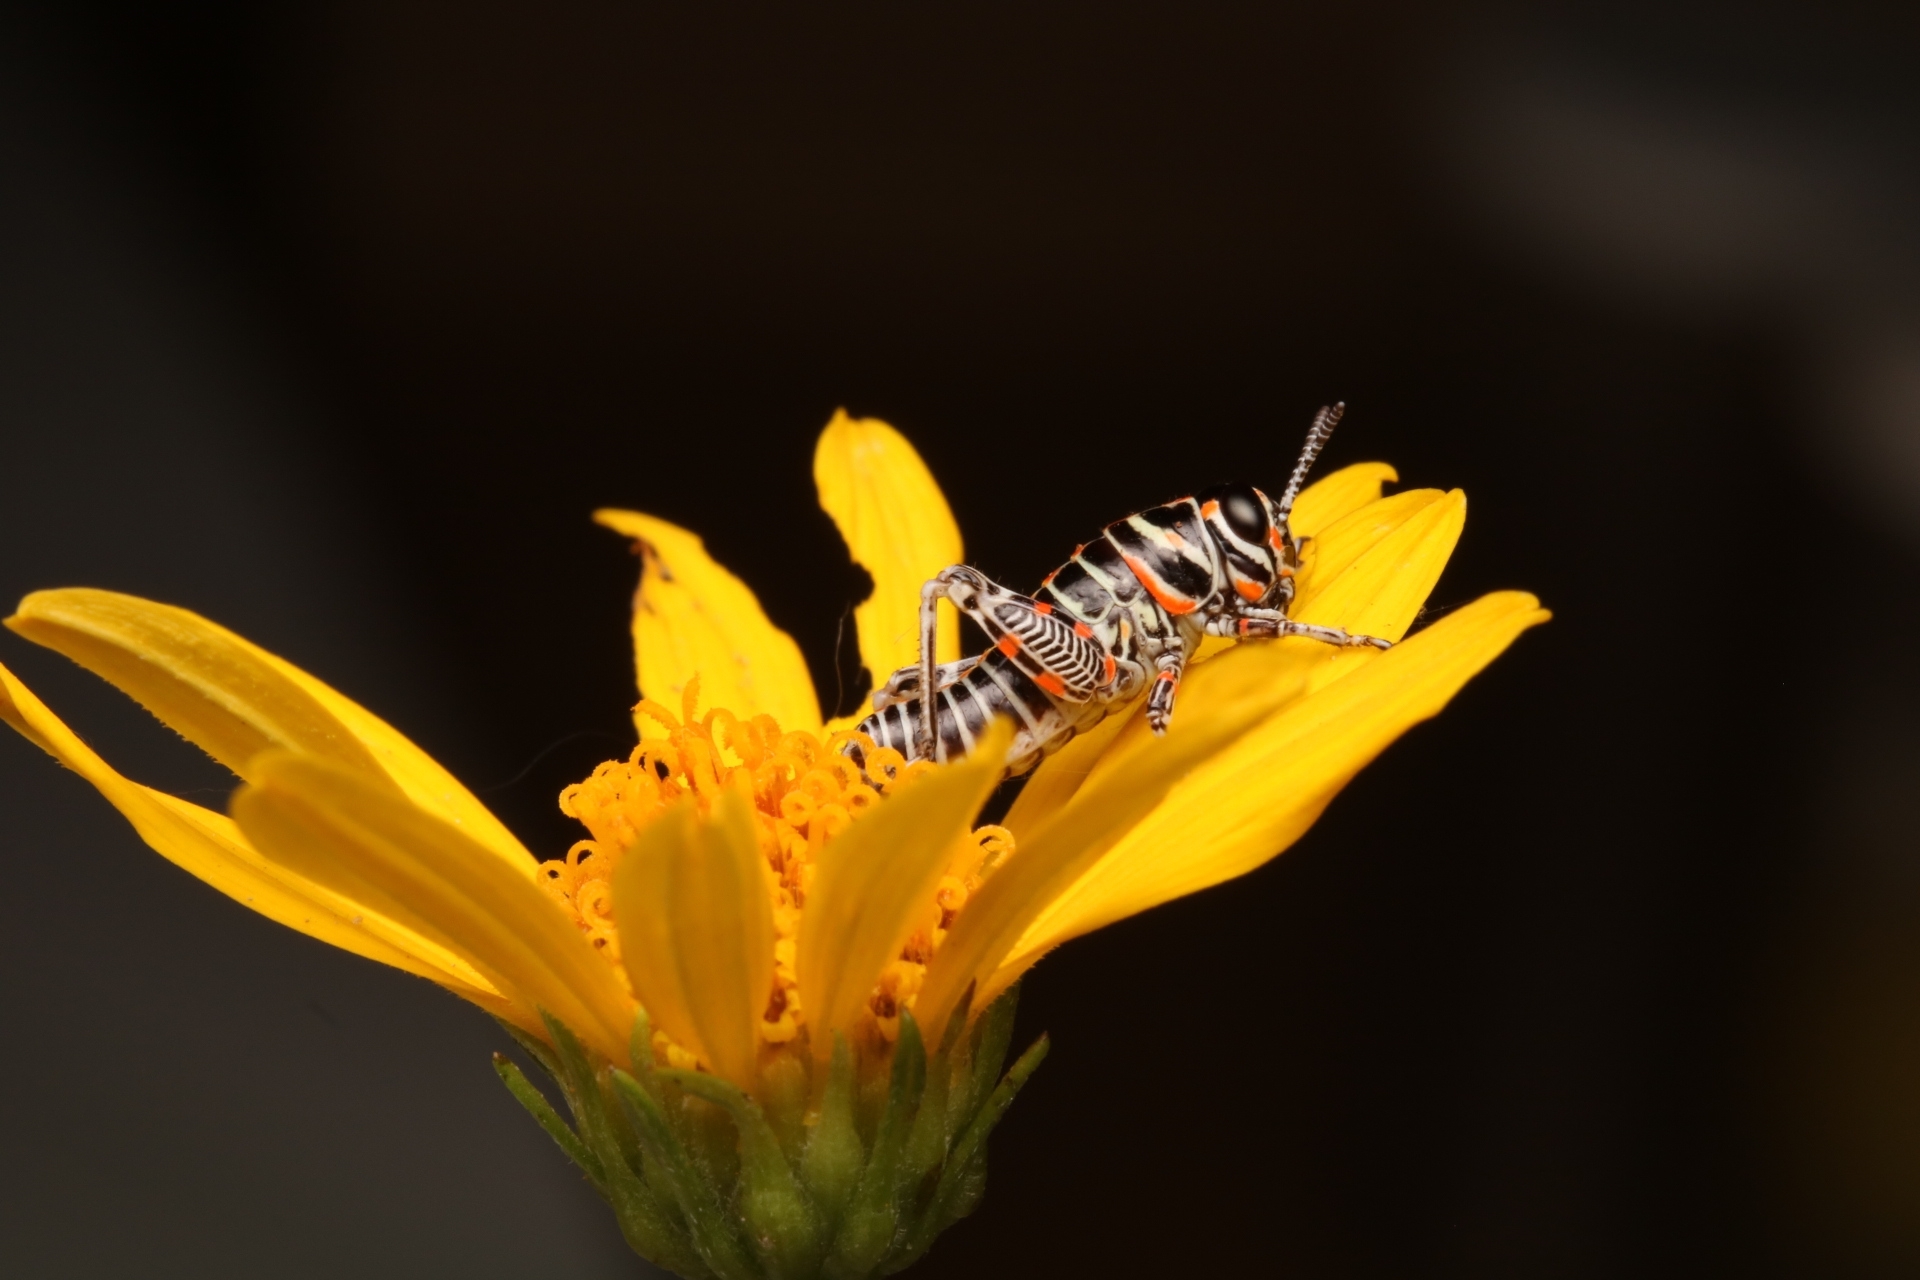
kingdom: Animalia
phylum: Arthropoda
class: Insecta
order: Orthoptera
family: Acrididae
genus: Dactylotum
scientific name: Dactylotum bicolor
